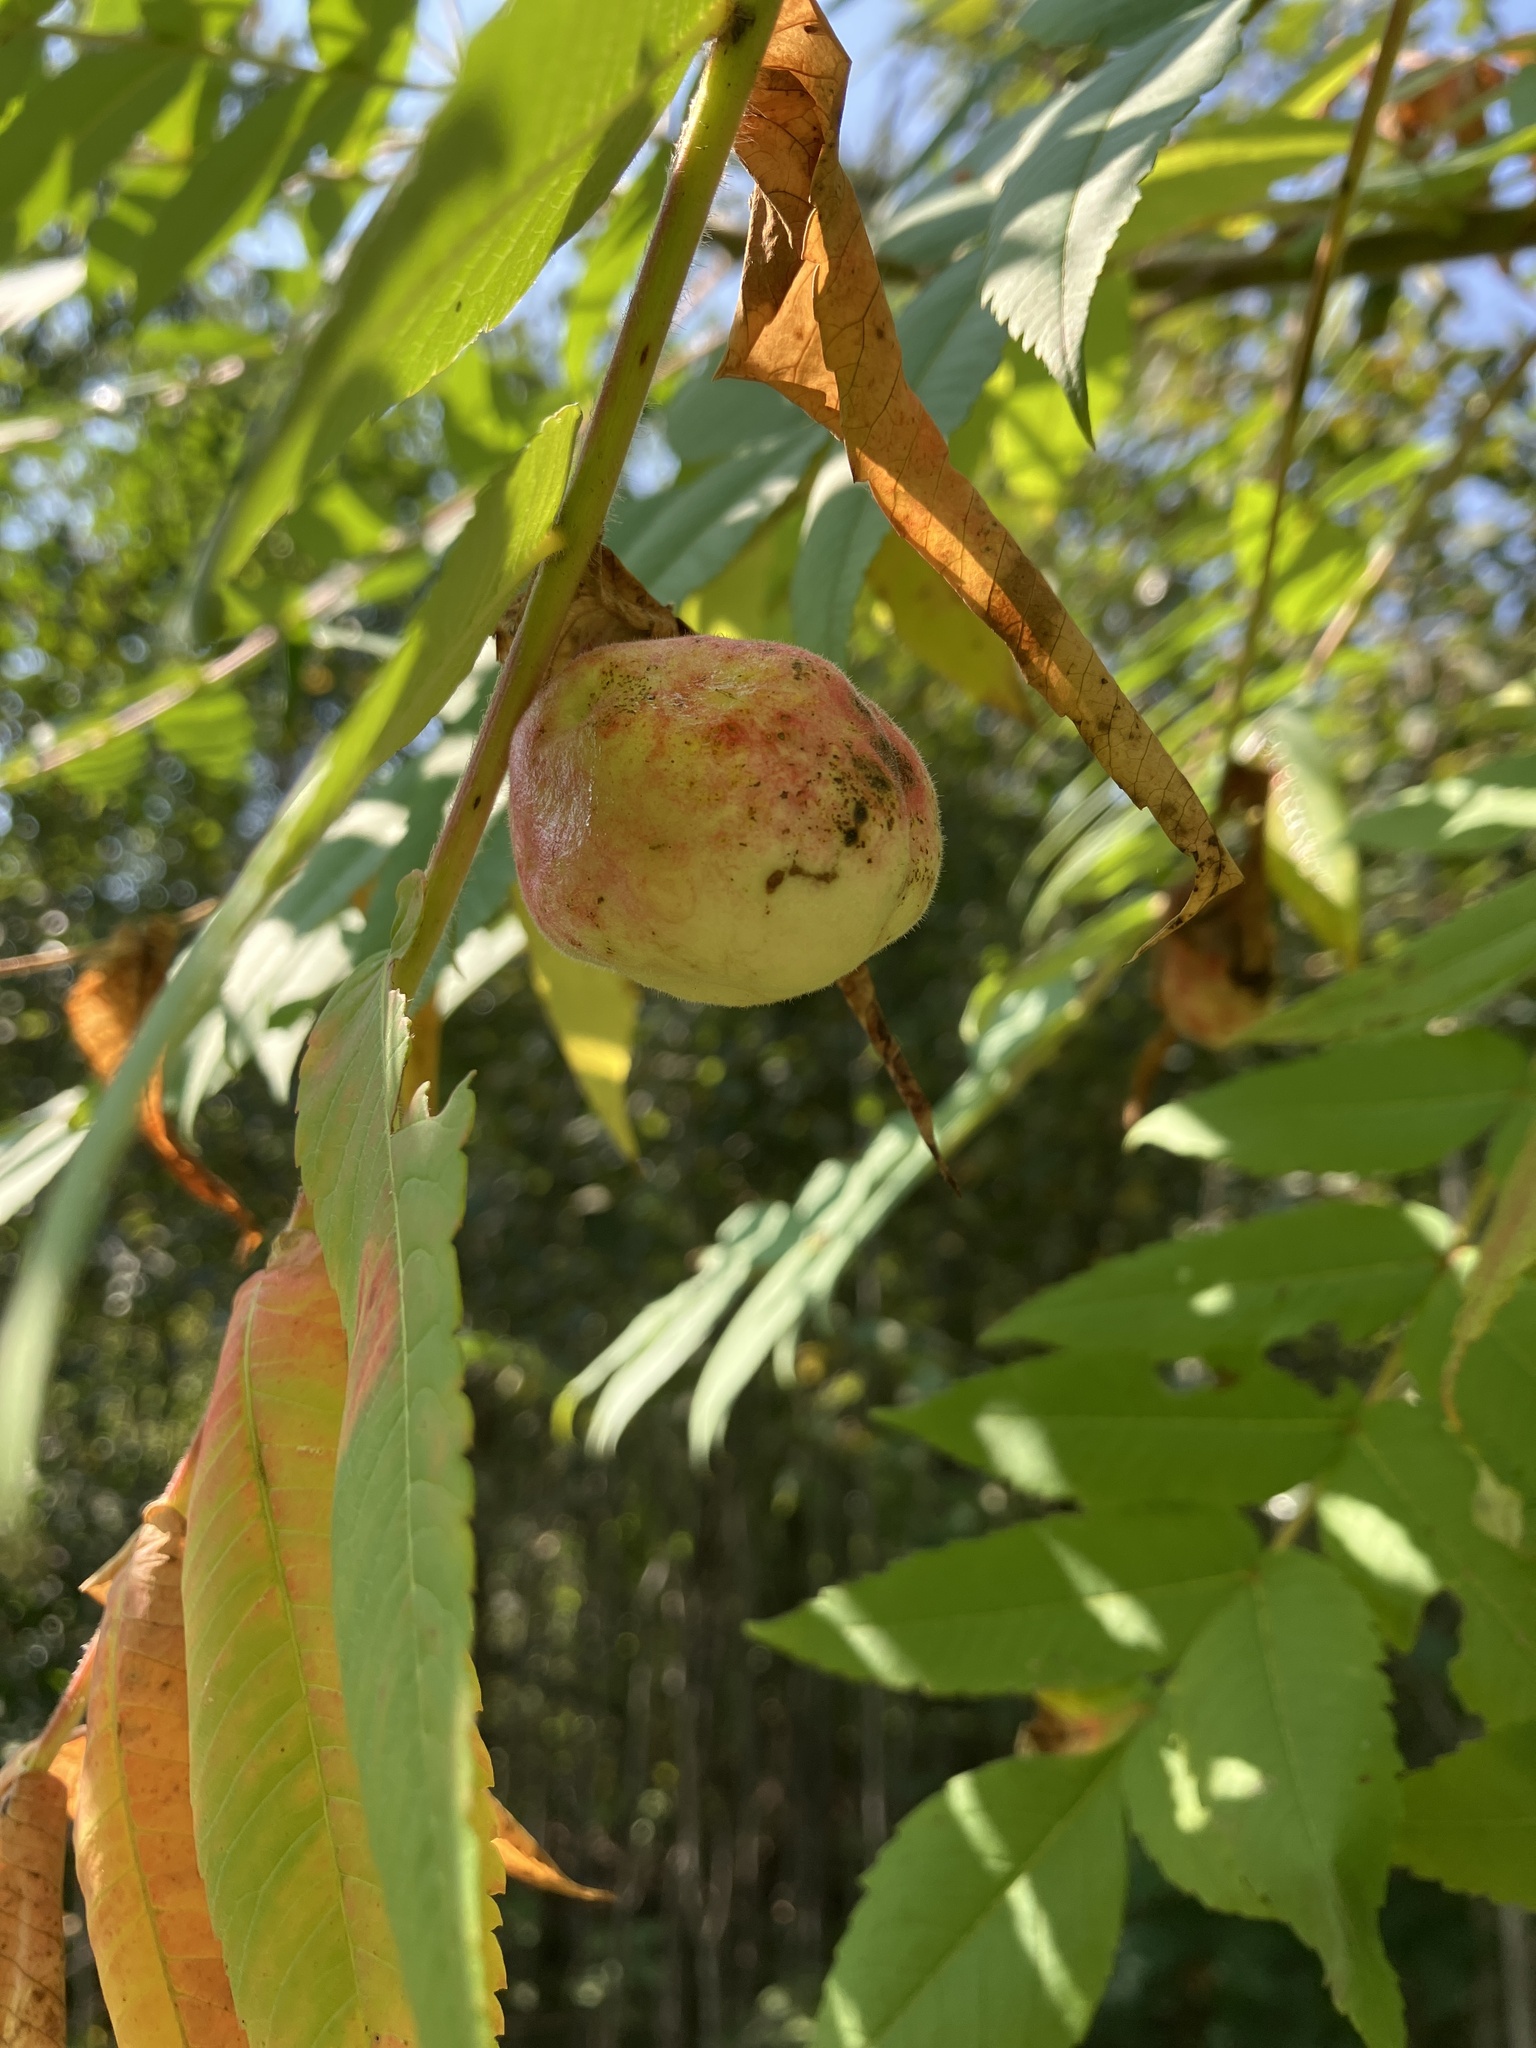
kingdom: Animalia
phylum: Arthropoda
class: Insecta
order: Hemiptera
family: Aphididae
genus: Melaphis
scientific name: Melaphis rhois
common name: Sumac gall aphid
